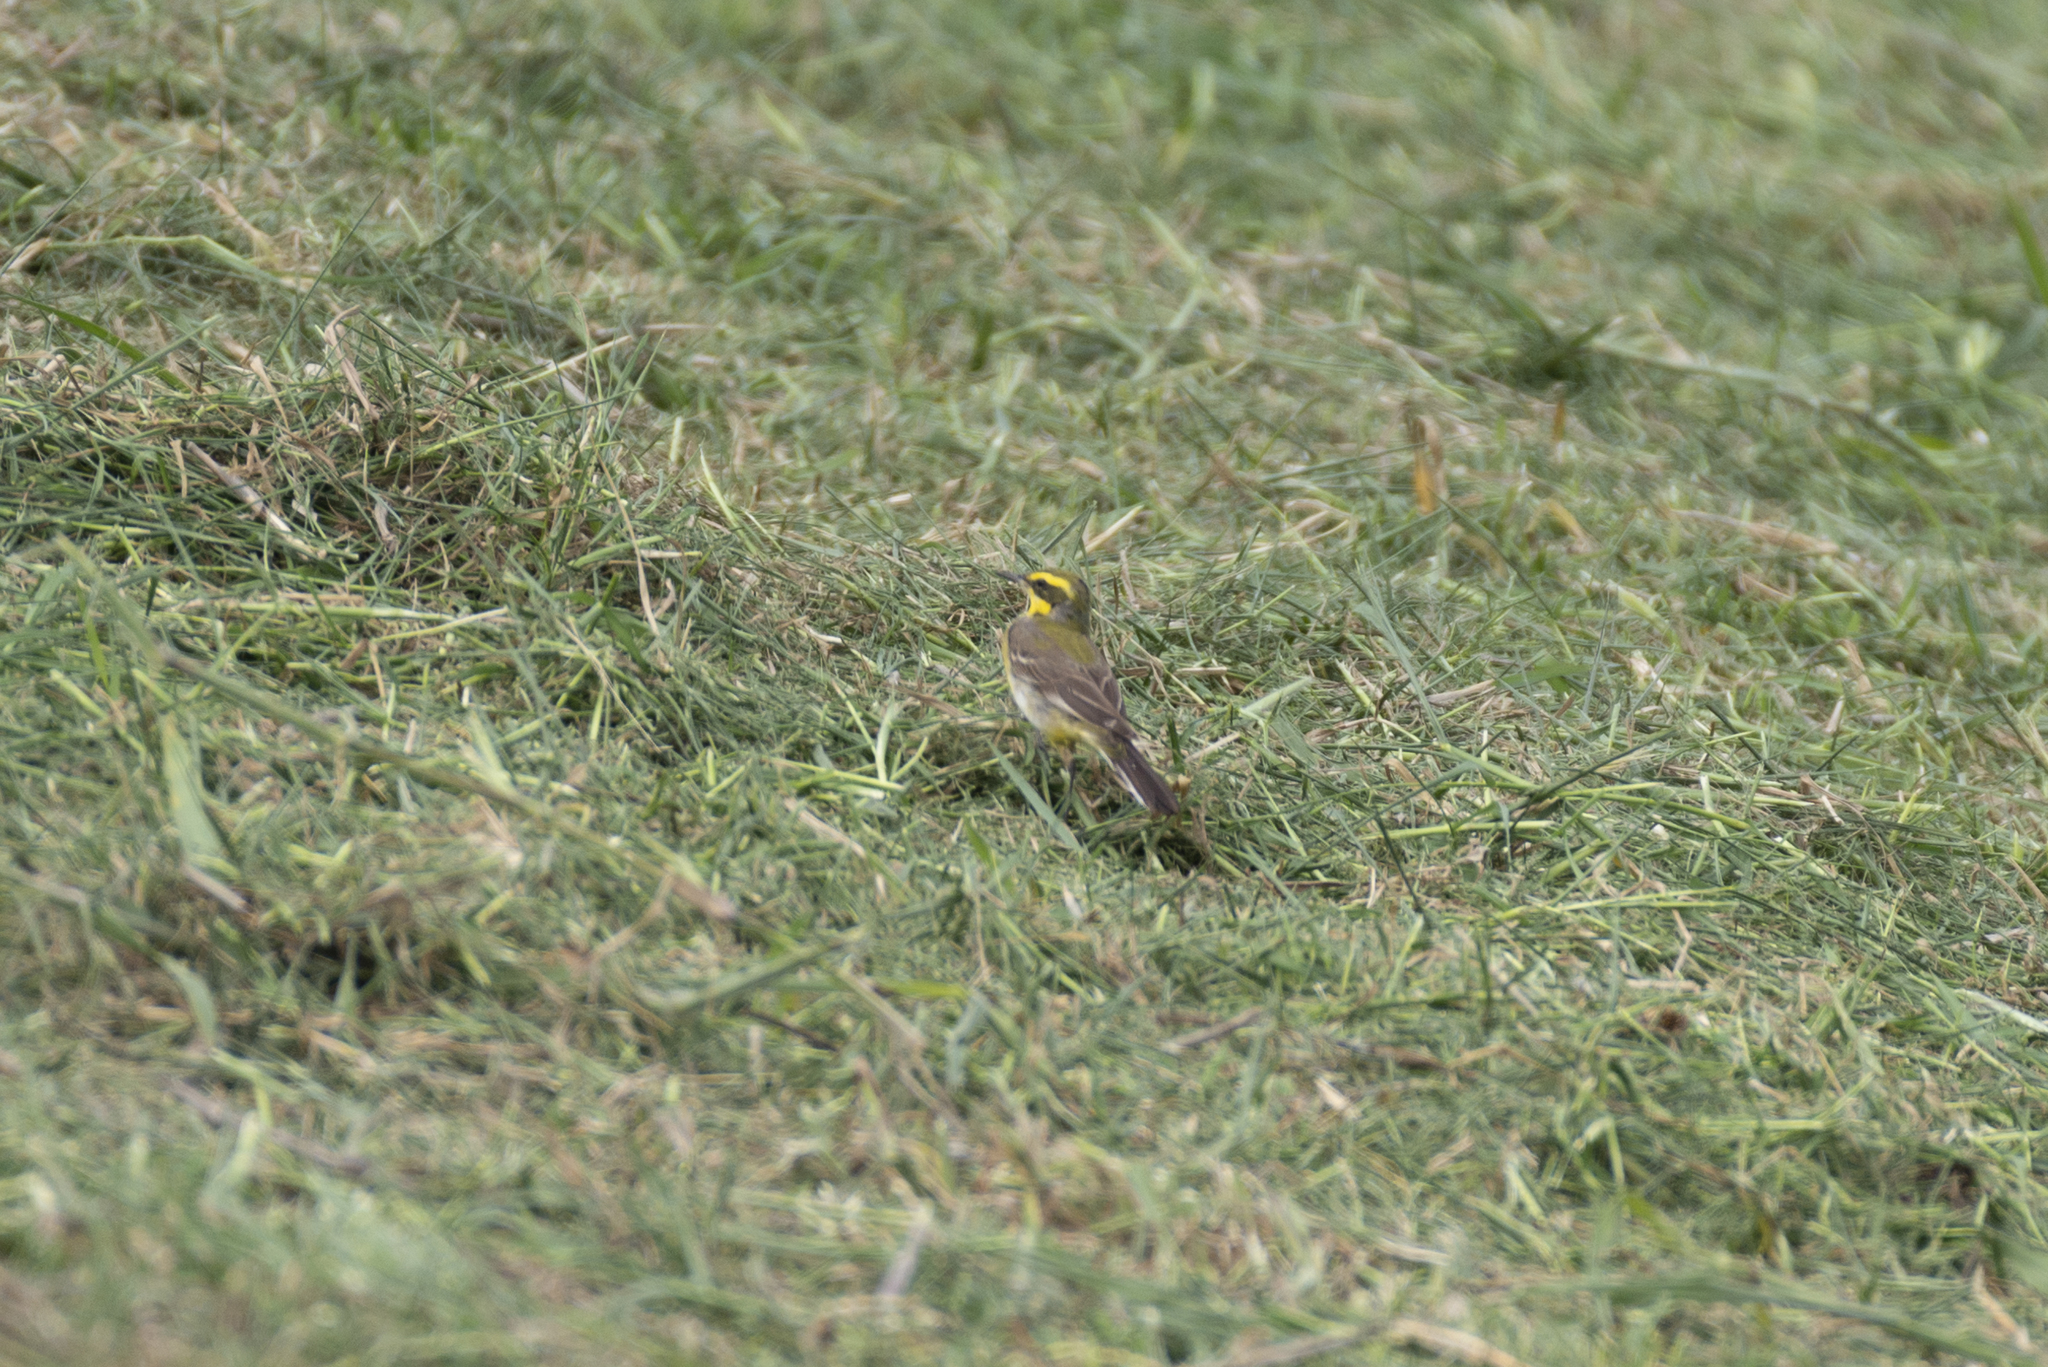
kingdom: Animalia
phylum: Chordata
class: Aves
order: Passeriformes
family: Motacillidae
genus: Motacilla
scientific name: Motacilla tschutschensis
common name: Eastern yellow wagtail
